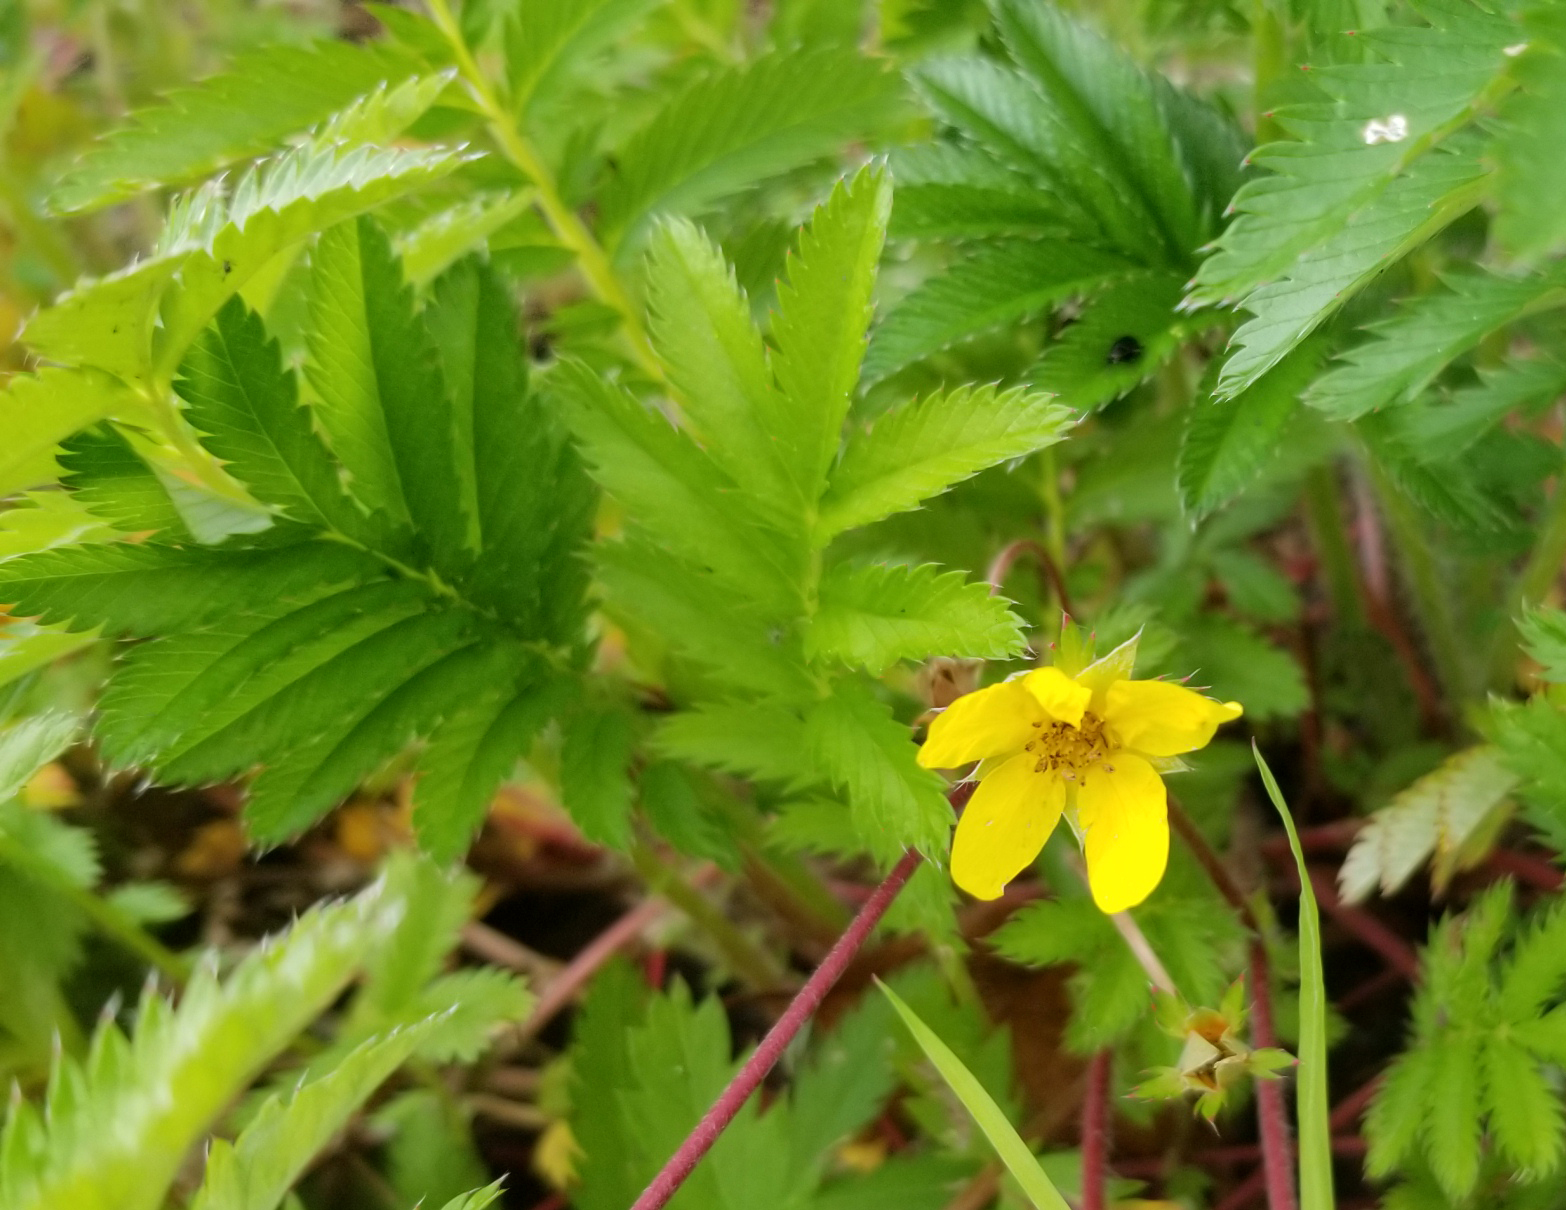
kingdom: Plantae
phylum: Tracheophyta
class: Magnoliopsida
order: Rosales
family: Rosaceae
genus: Argentina
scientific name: Argentina anserina
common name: Common silverweed
